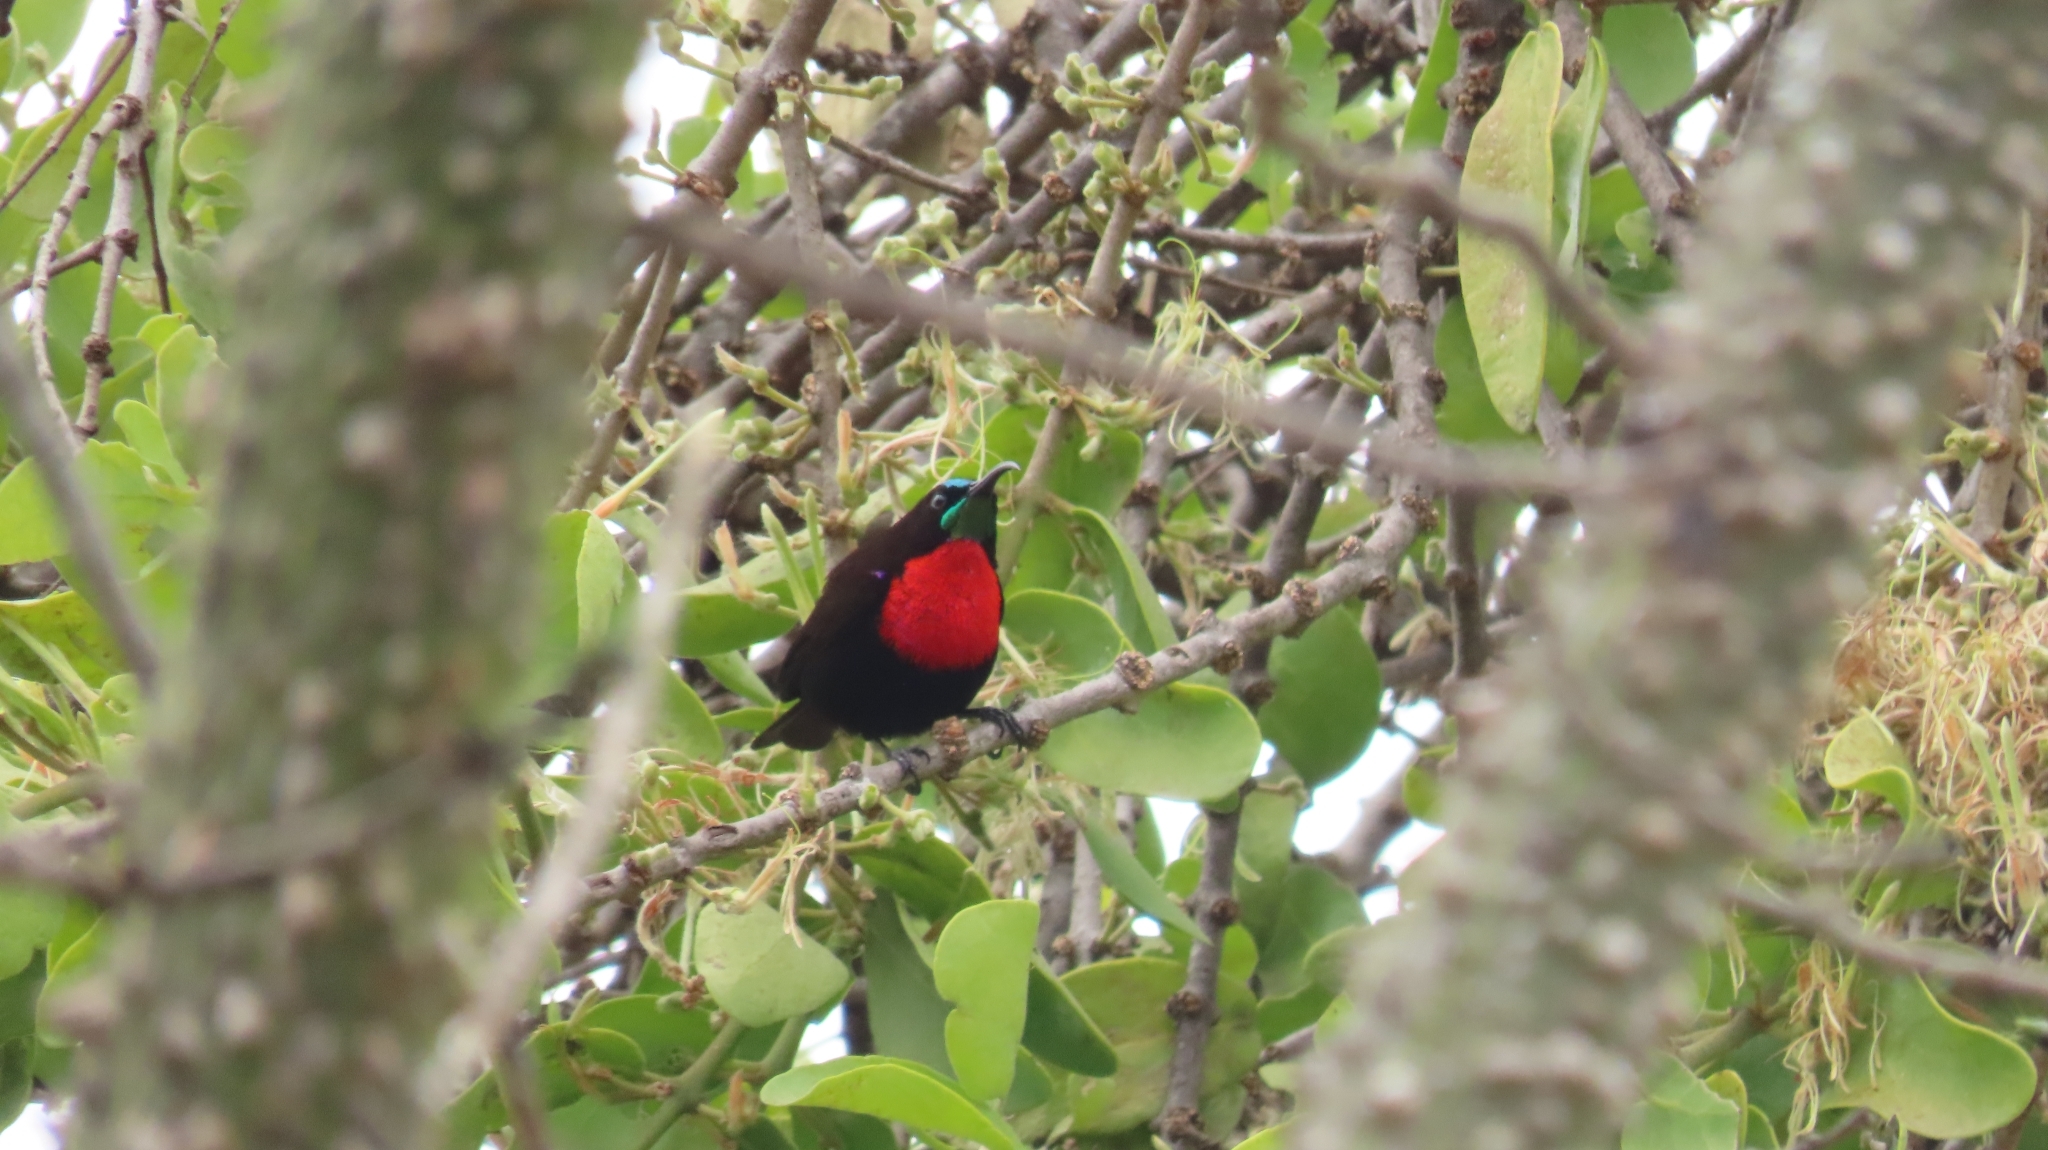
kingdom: Animalia
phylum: Chordata
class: Aves
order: Passeriformes
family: Nectariniidae
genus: Chalcomitra
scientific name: Chalcomitra senegalensis
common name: Scarlet-chested sunbird
